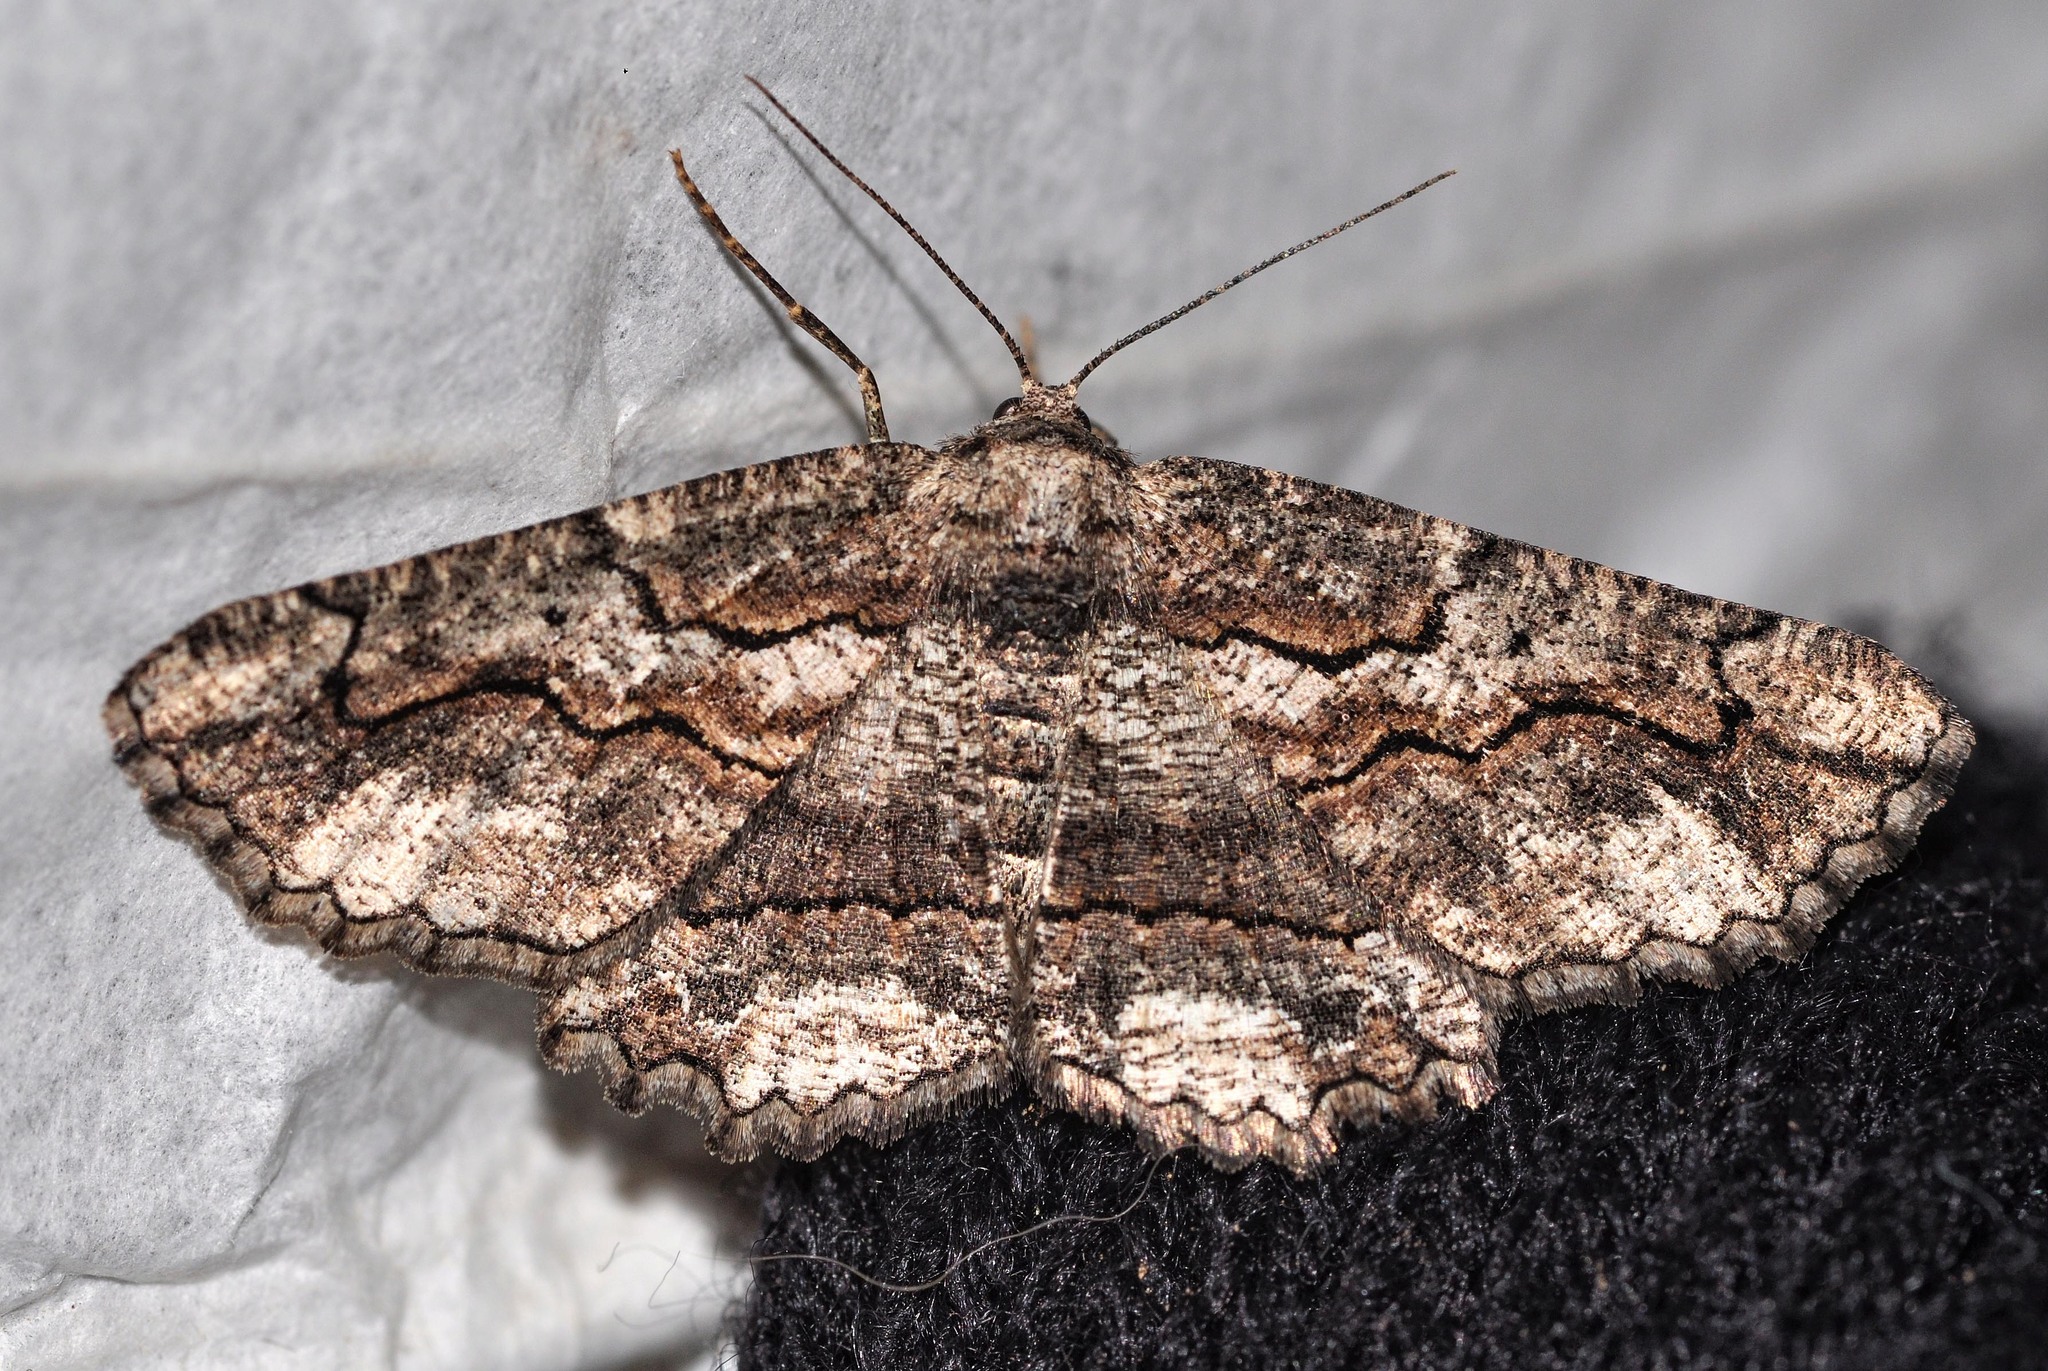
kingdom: Animalia
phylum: Arthropoda
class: Insecta
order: Lepidoptera
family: Geometridae
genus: Menophra
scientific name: Menophra japygiaria
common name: Brassy waved umber
